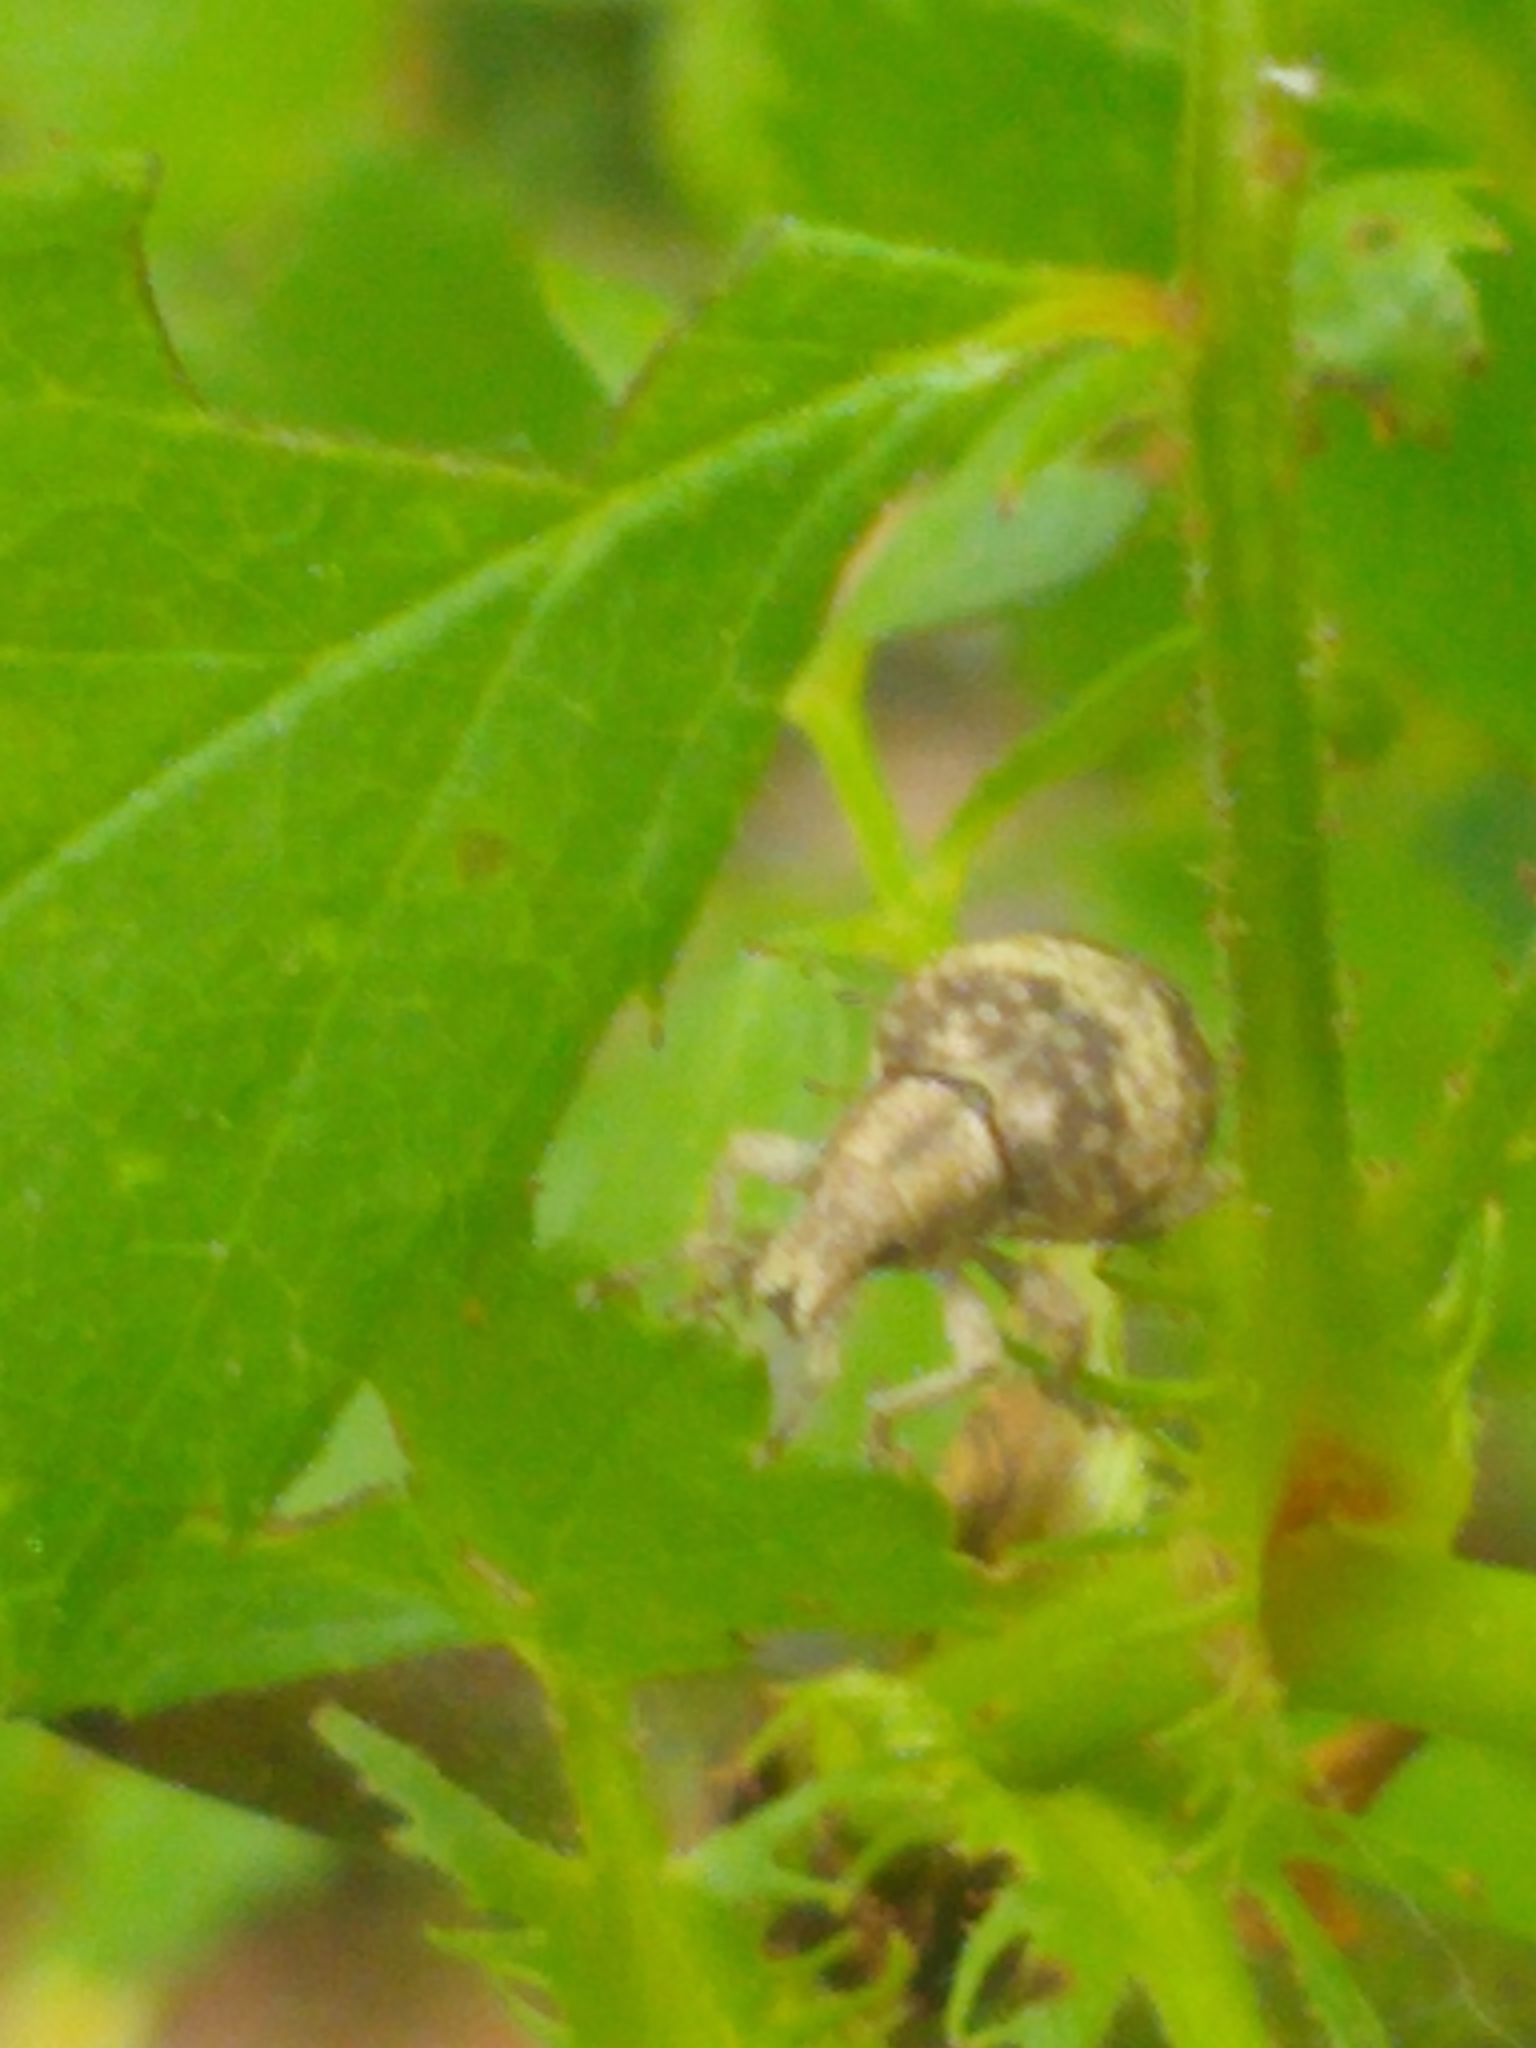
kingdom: Animalia
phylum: Arthropoda
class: Insecta
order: Coleoptera
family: Curculionidae
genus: Pseudocneorhinus
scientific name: Pseudocneorhinus bifasciatus
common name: Two-banded japanese weevil
